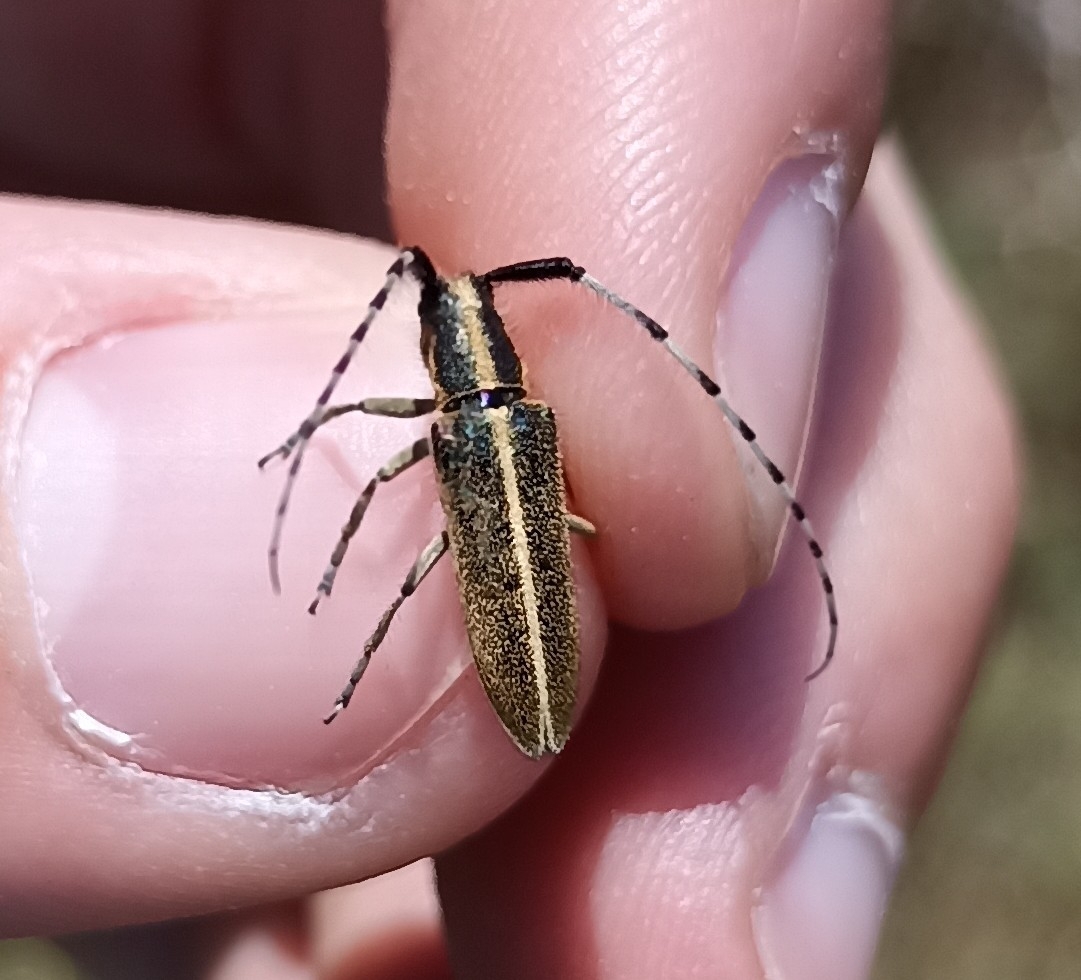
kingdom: Animalia
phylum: Arthropoda
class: Insecta
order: Coleoptera
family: Cerambycidae
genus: Agapanthia
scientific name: Agapanthia suturalis
